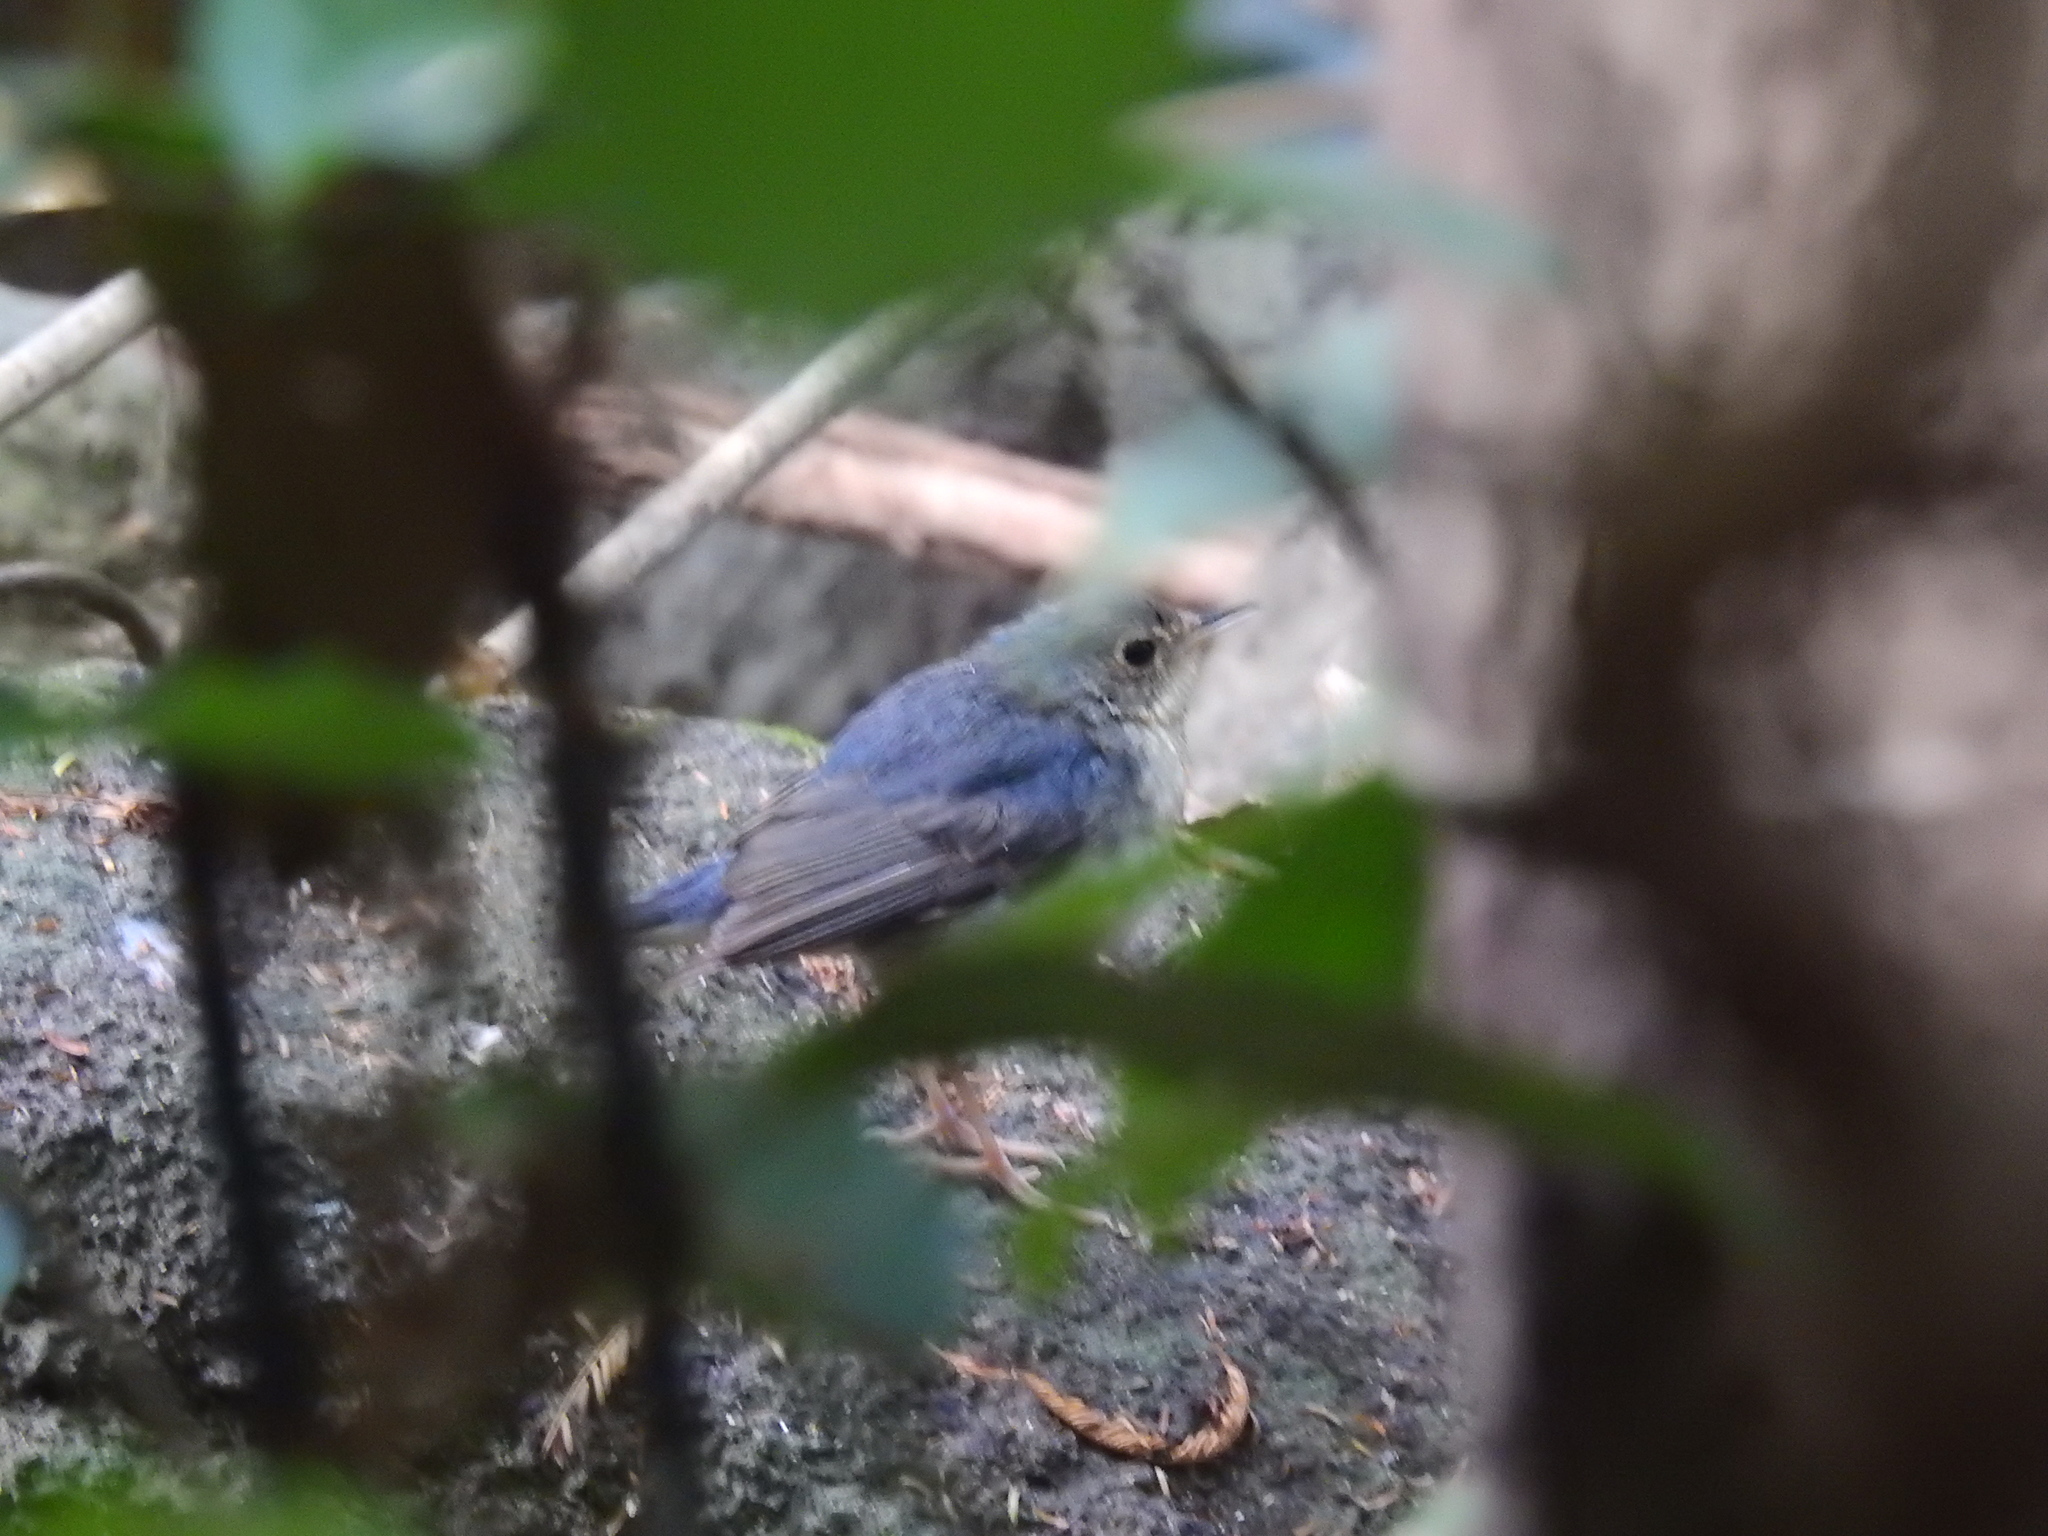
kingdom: Animalia
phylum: Chordata
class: Aves
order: Passeriformes
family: Muscicapidae
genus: Luscinia
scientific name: Luscinia cyane
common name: Siberian blue robin
